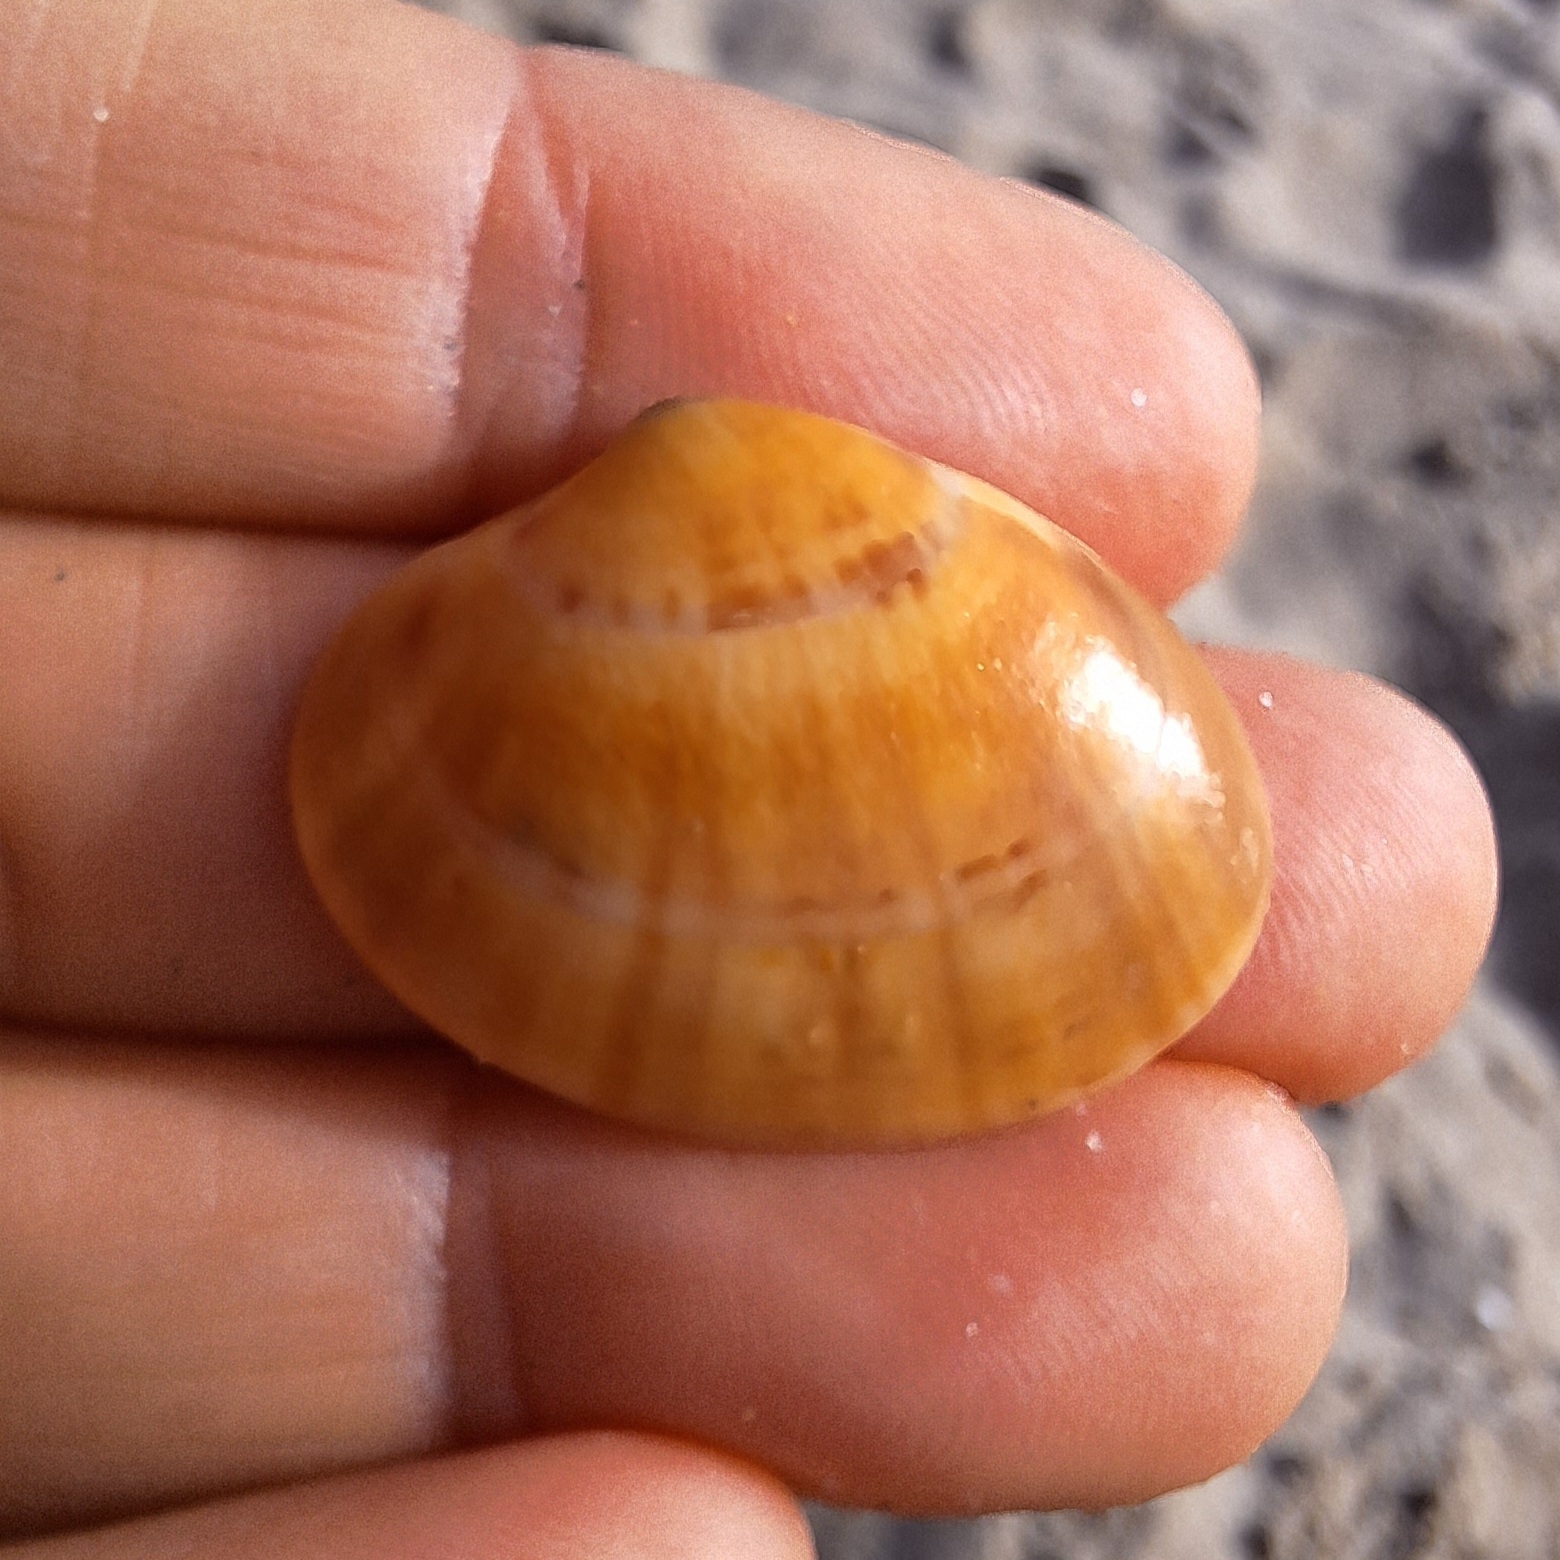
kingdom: Animalia
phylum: Mollusca
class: Bivalvia
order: Venerida
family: Veneridae
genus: Callista
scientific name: Callista chione
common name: Brown venus
